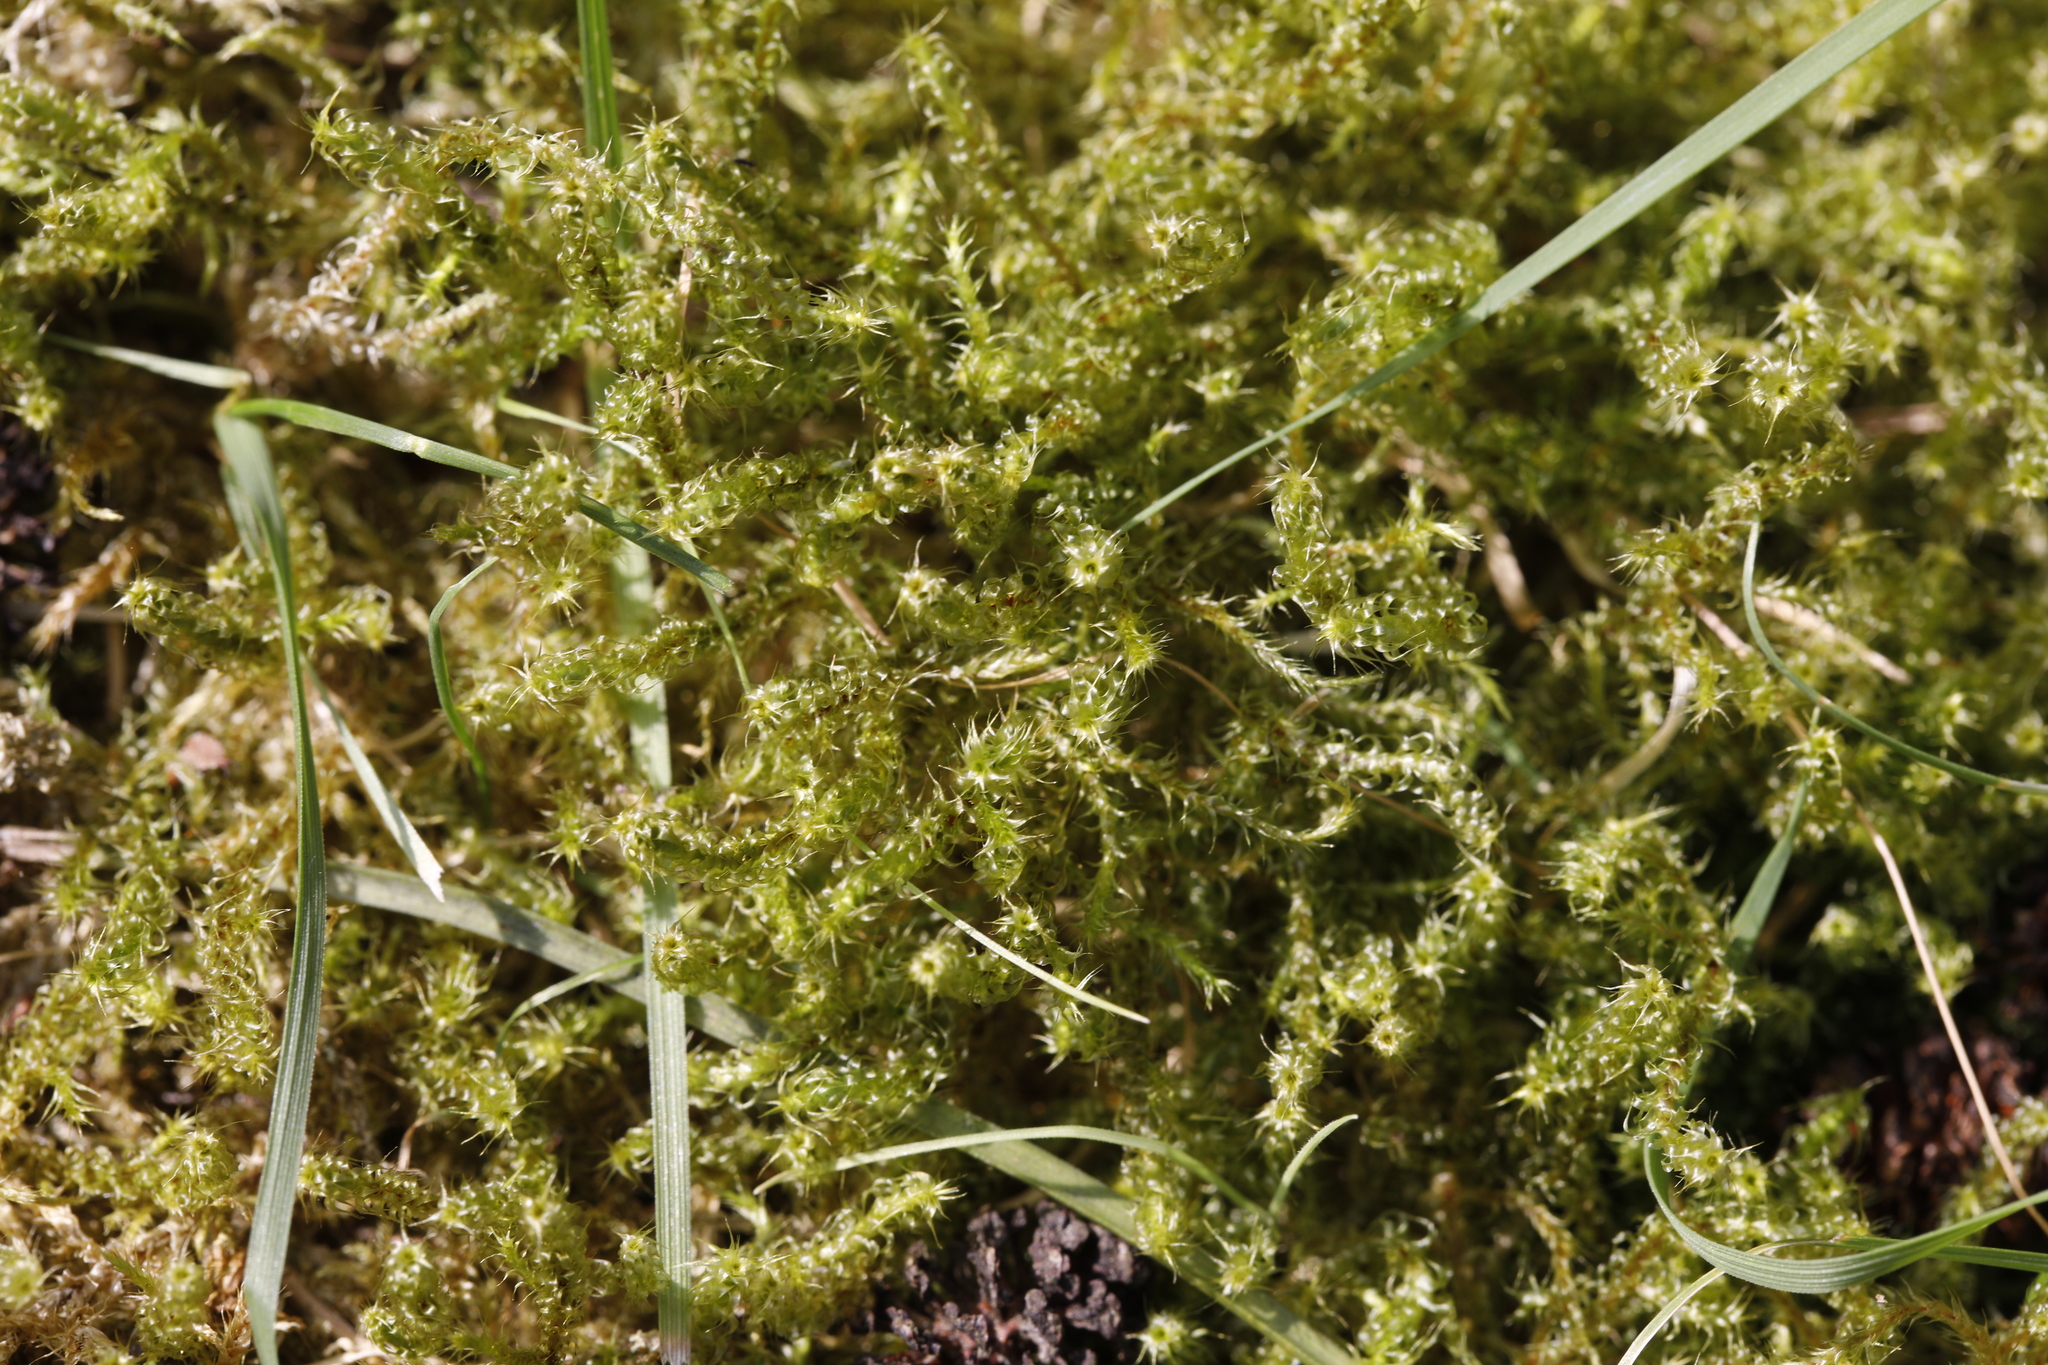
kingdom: Plantae
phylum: Bryophyta
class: Bryopsida
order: Hypnales
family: Hylocomiaceae
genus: Rhytidiadelphus
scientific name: Rhytidiadelphus squarrosus
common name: Springy turf-moss
